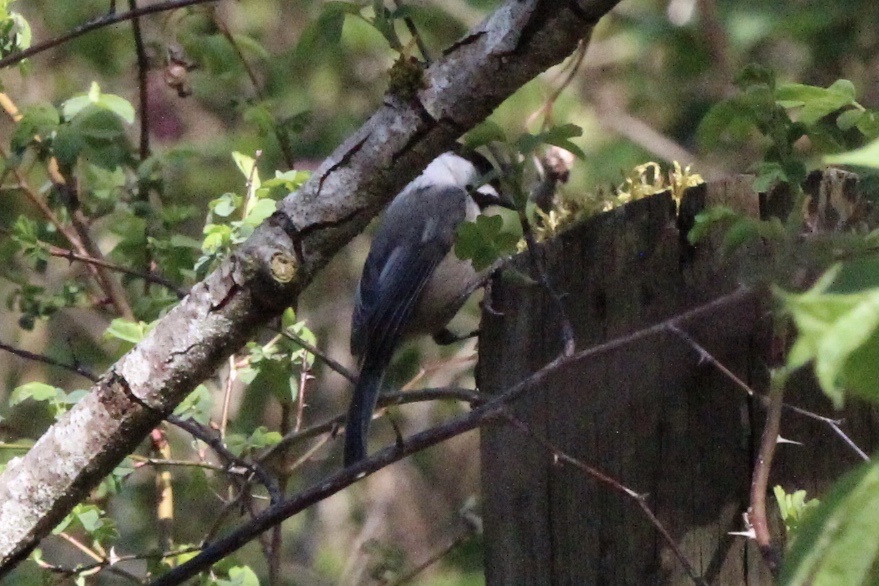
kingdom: Animalia
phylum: Chordata
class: Aves
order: Passeriformes
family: Paridae
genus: Poecile
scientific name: Poecile atricapillus
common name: Black-capped chickadee
